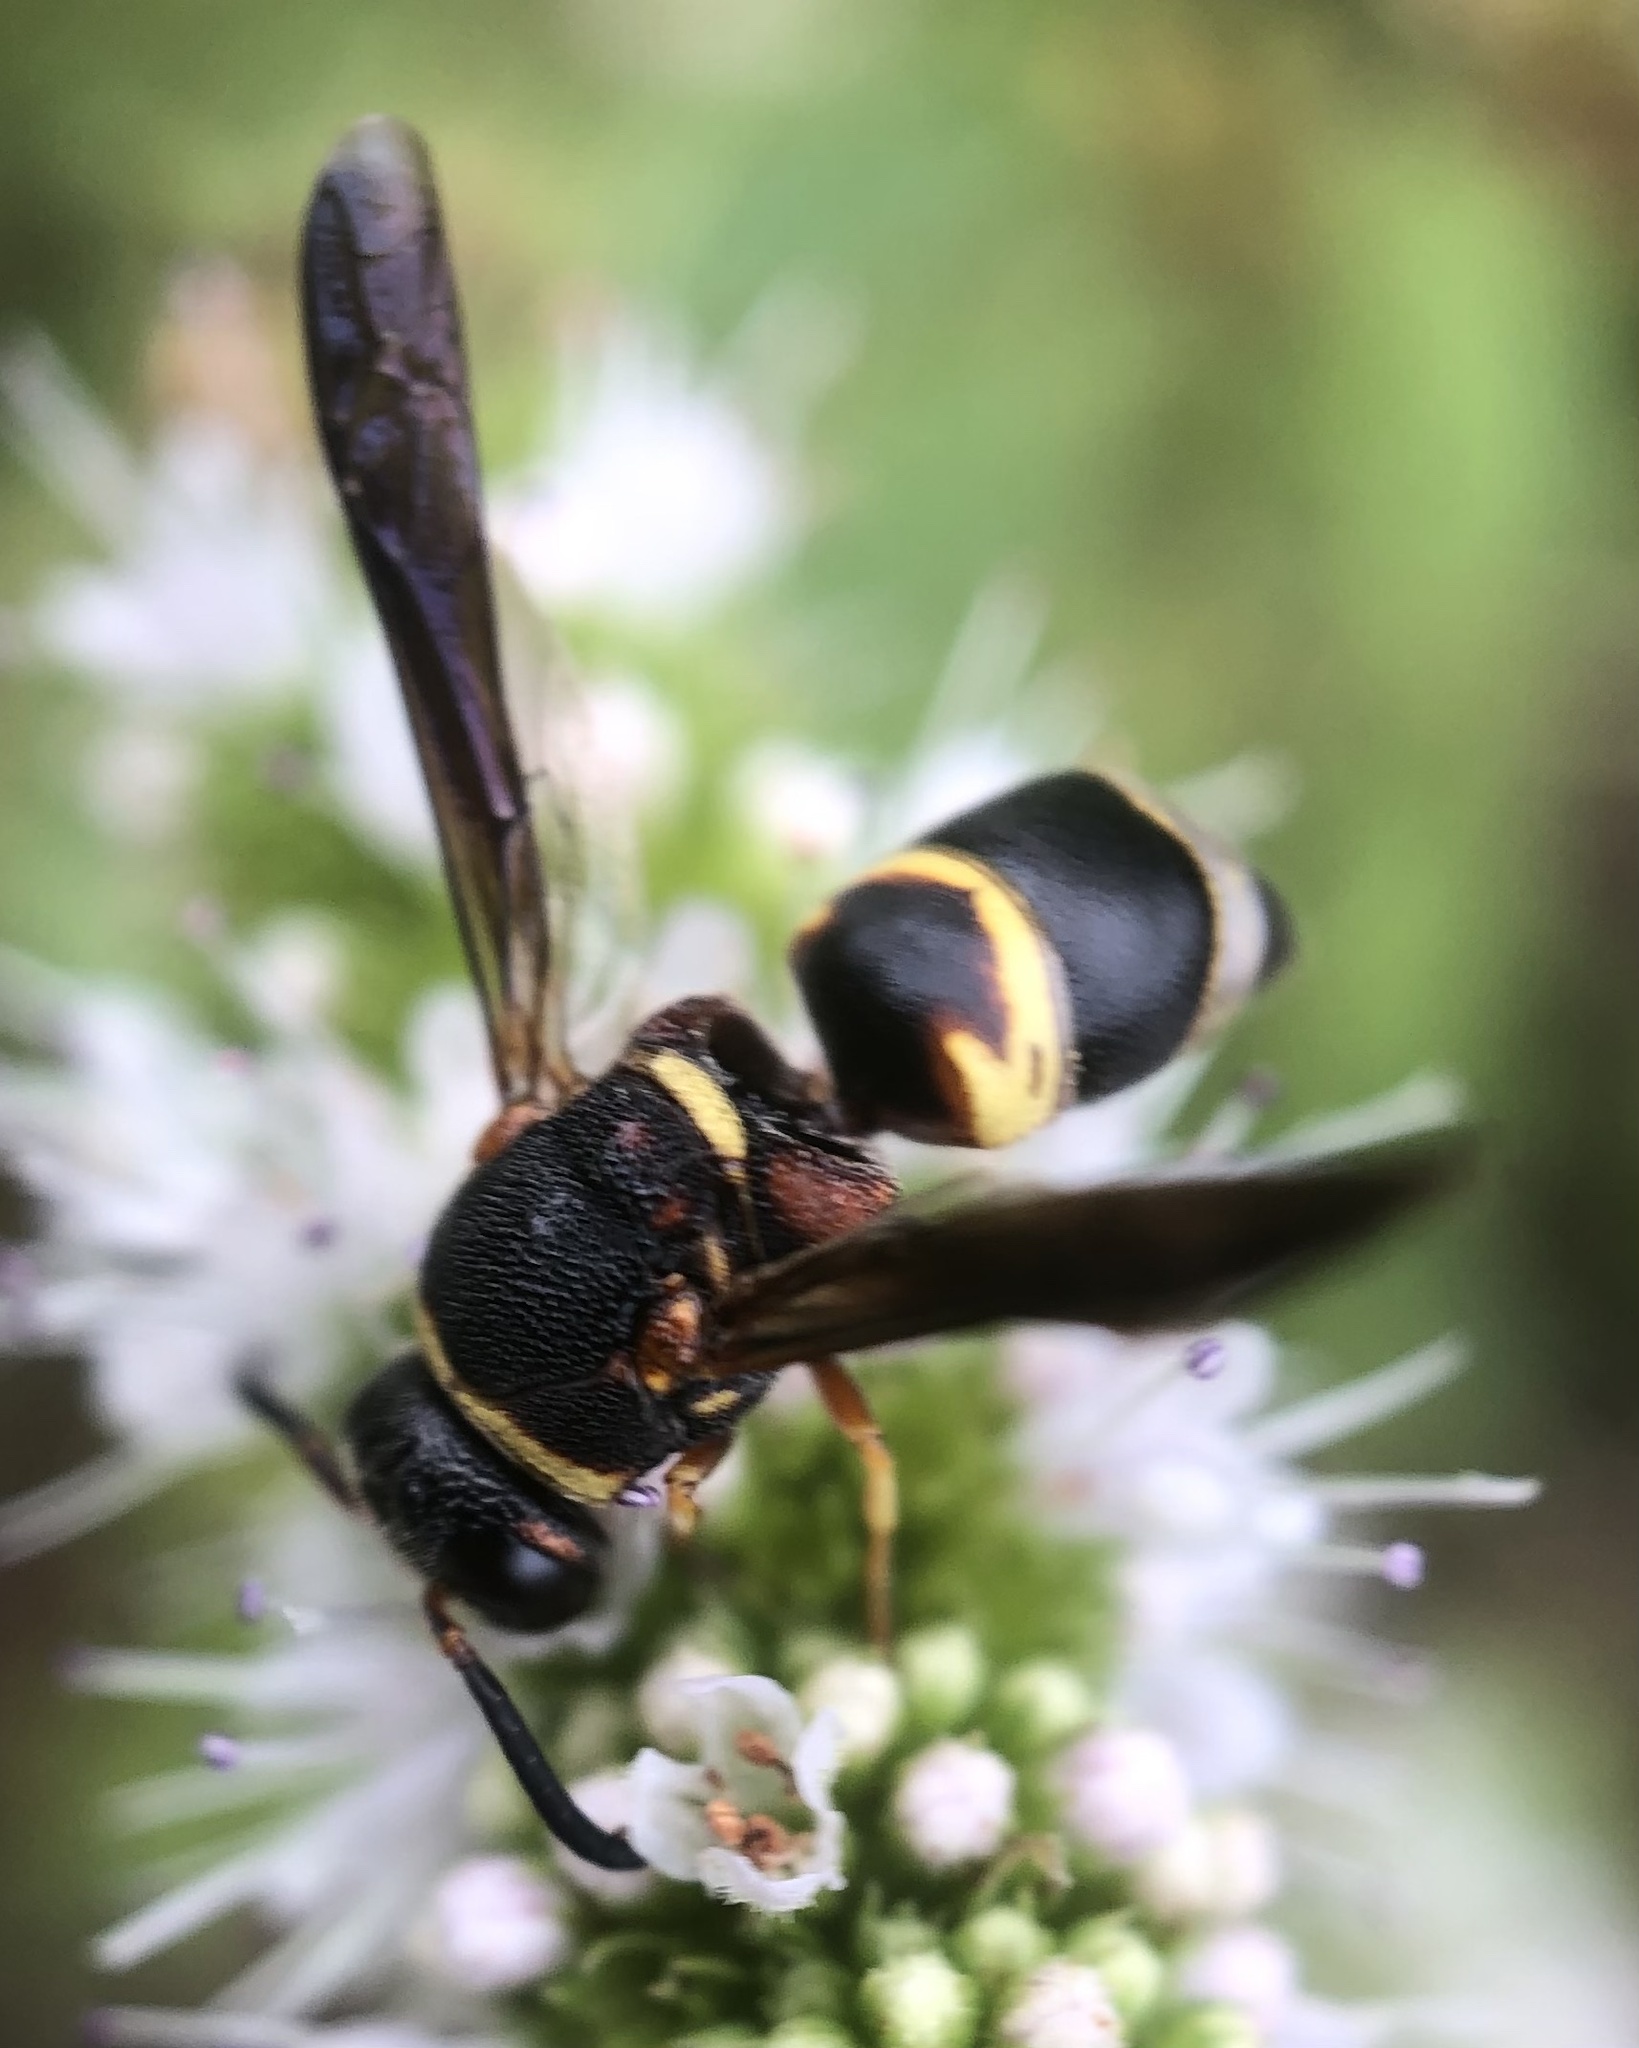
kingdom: Animalia
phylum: Arthropoda
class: Insecta
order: Hymenoptera
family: Eumenidae
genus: Euodynerus
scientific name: Euodynerus hidalgo
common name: Wasp
